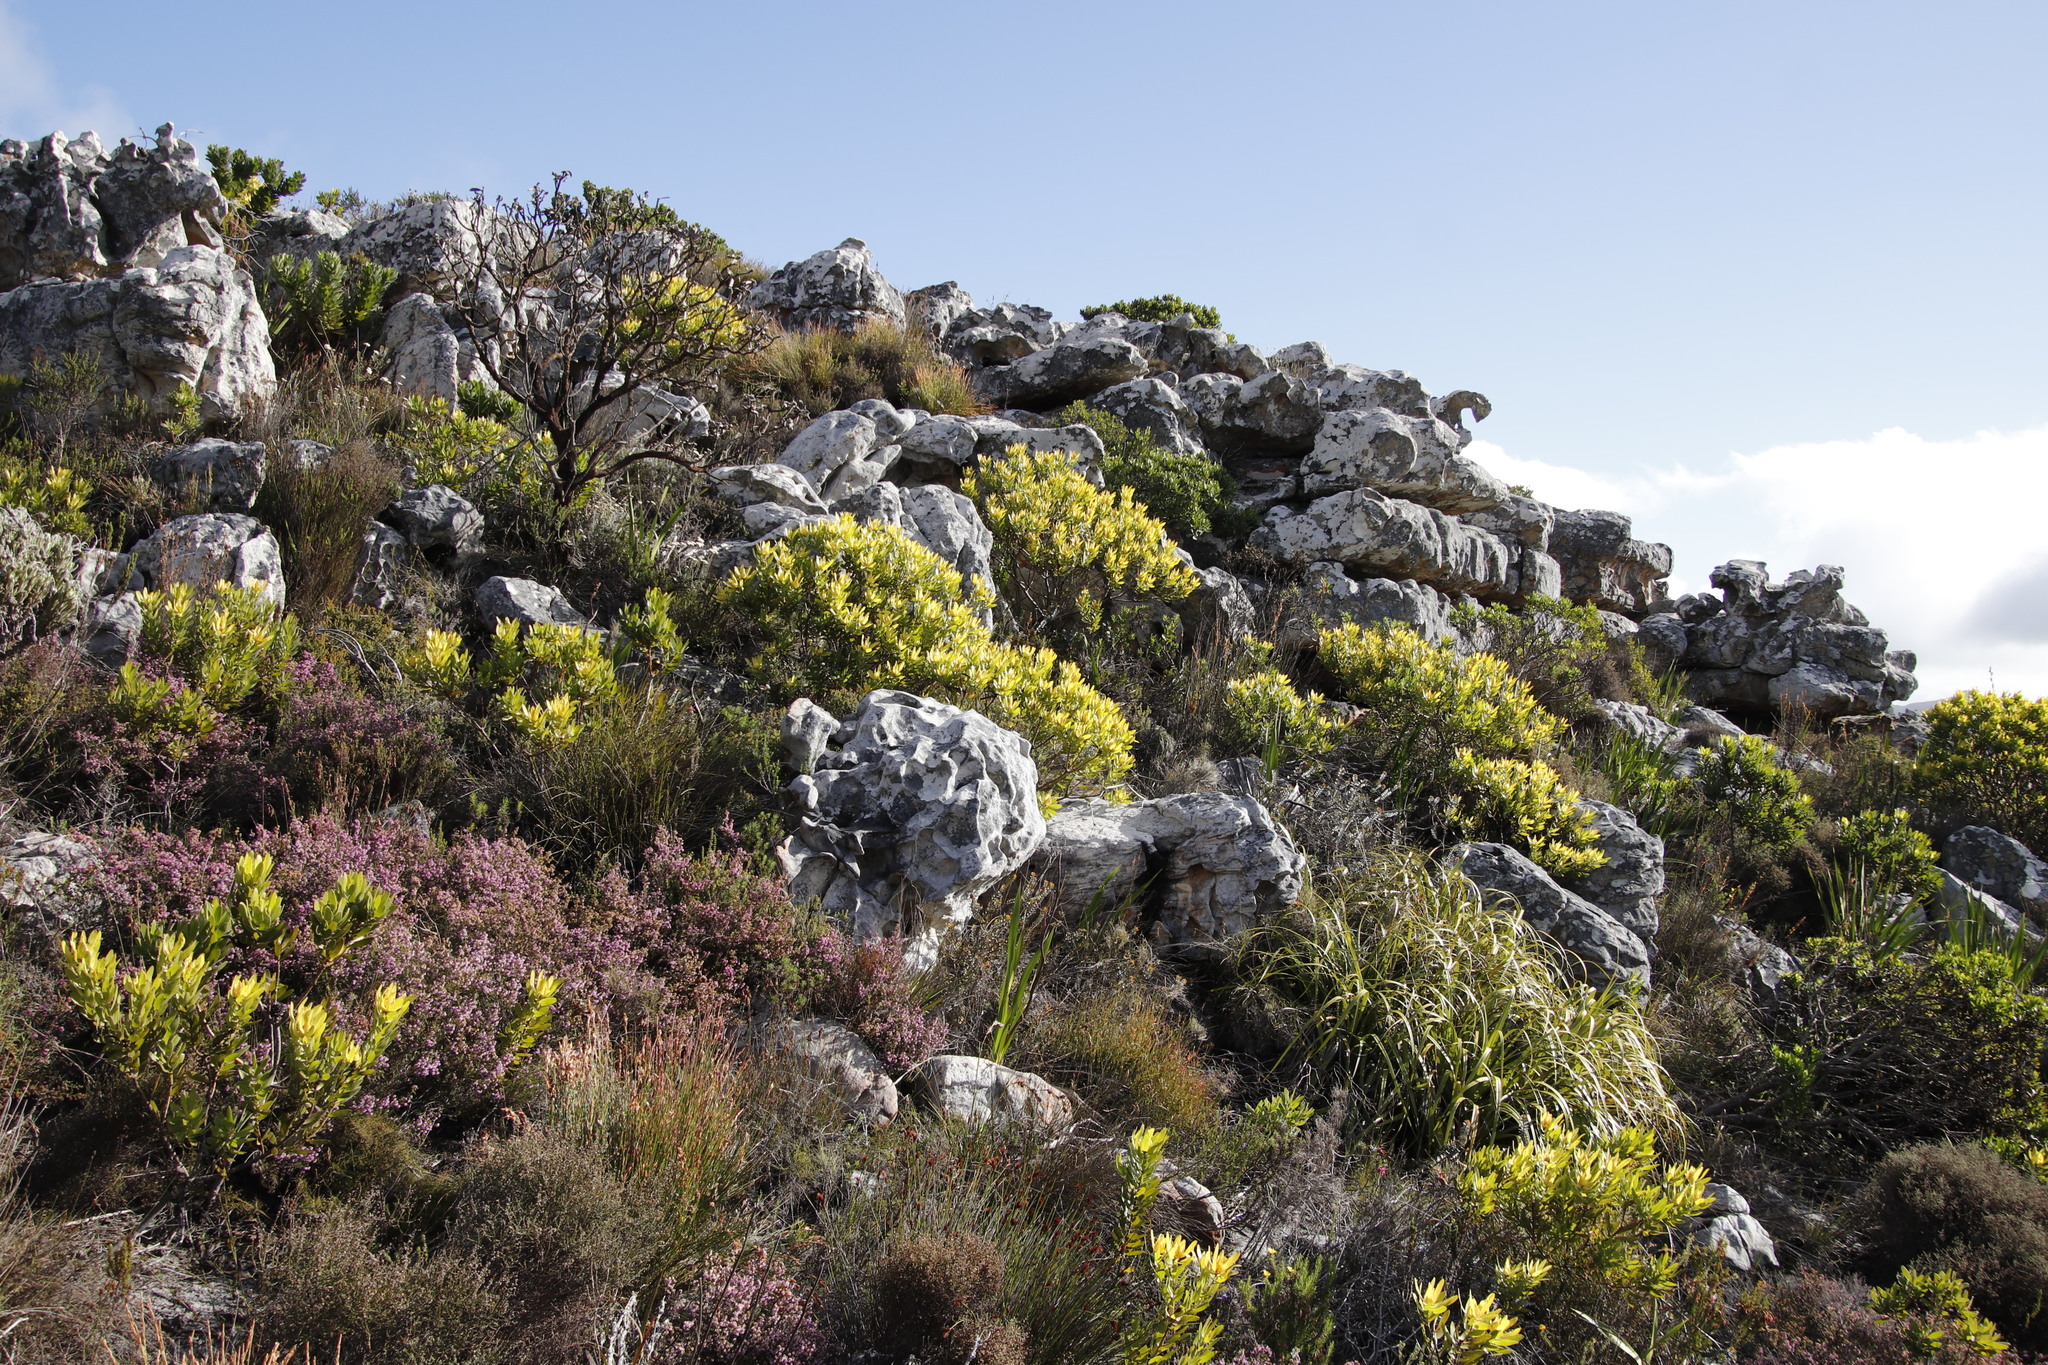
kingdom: Plantae
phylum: Tracheophyta
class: Magnoliopsida
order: Proteales
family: Proteaceae
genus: Leucadendron
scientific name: Leucadendron laureolum
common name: Golden sunshinebush
